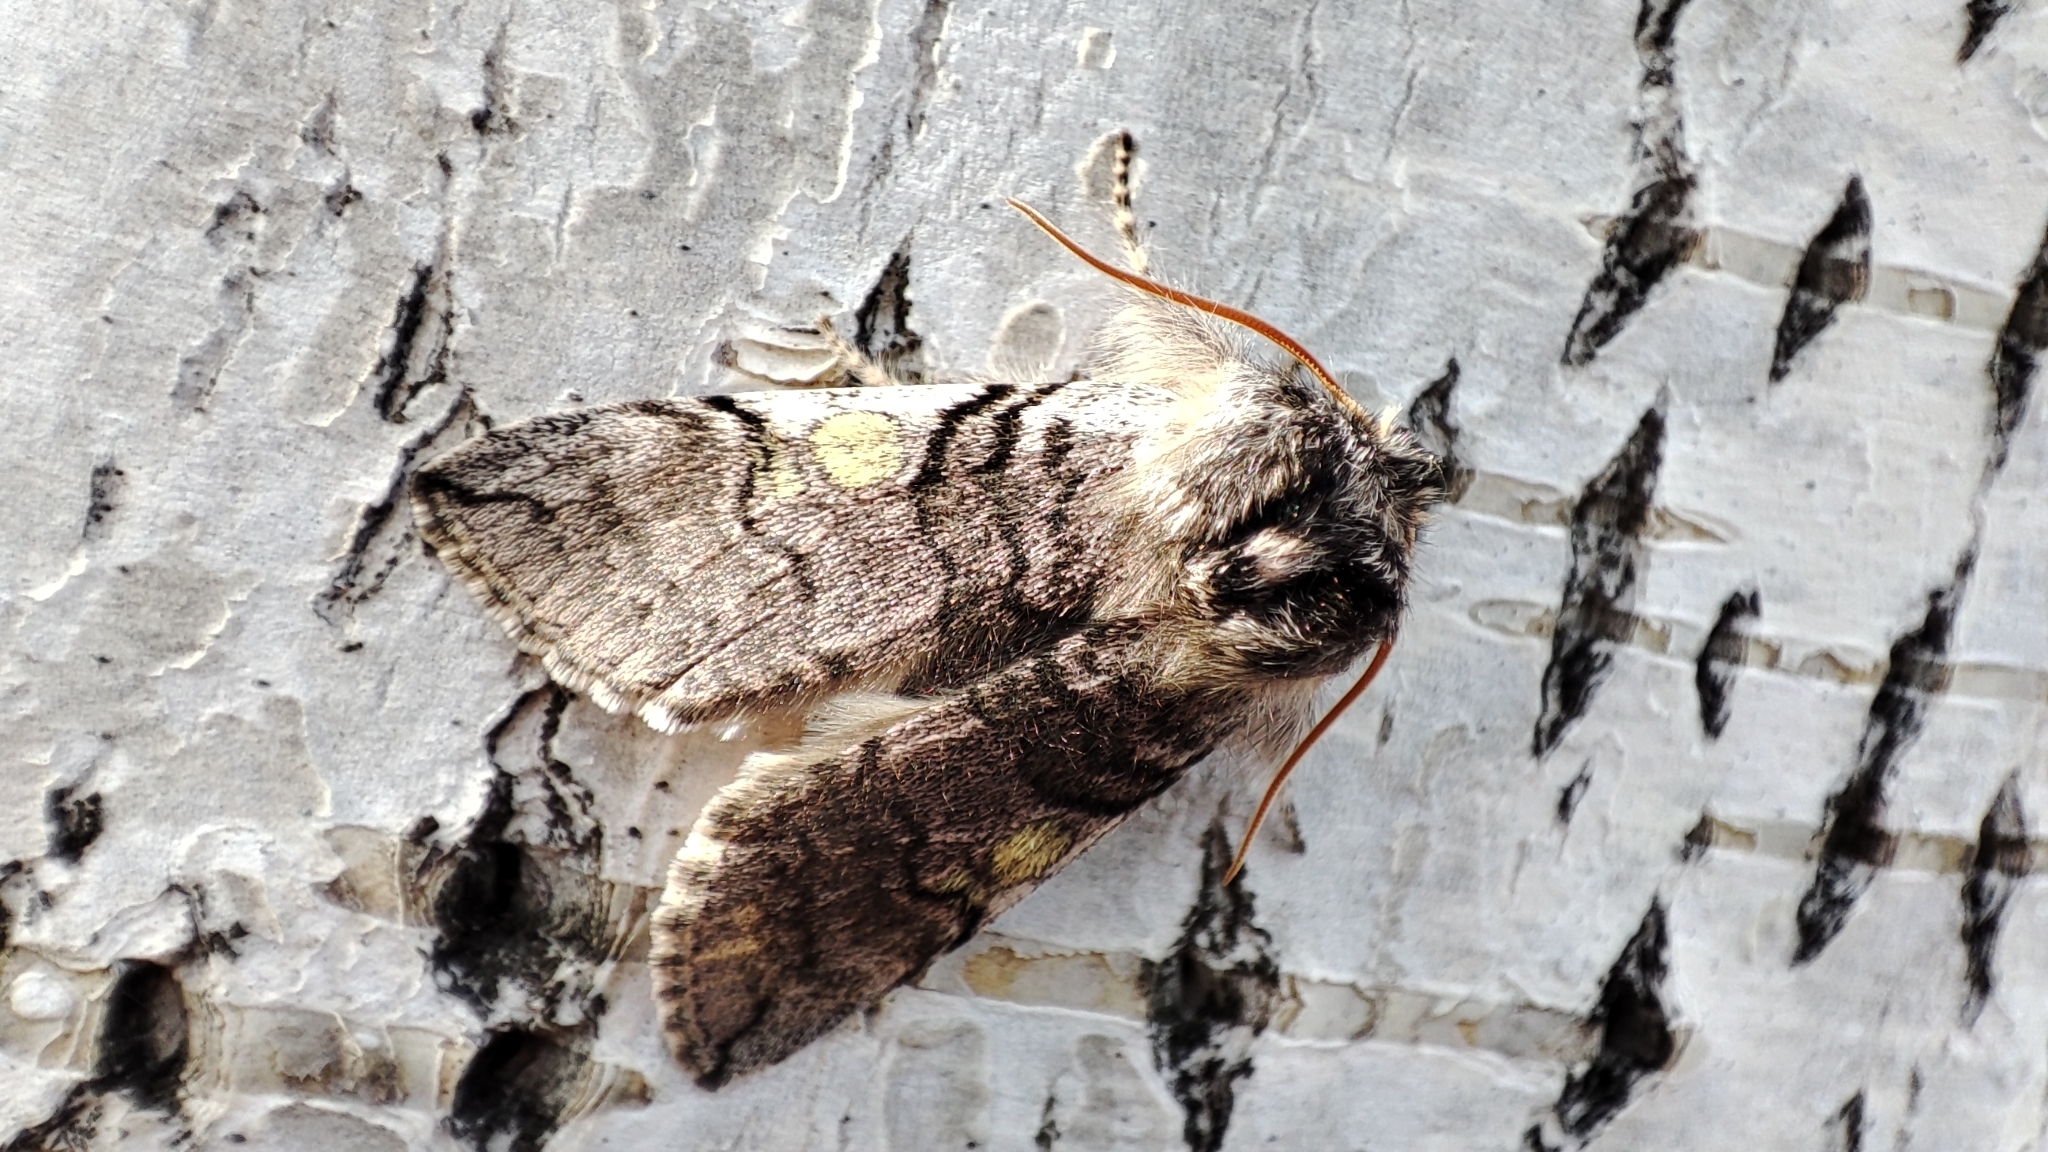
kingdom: Animalia
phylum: Arthropoda
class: Insecta
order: Lepidoptera
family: Drepanidae
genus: Achlya
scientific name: Achlya flavicornis
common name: Yellow horned
